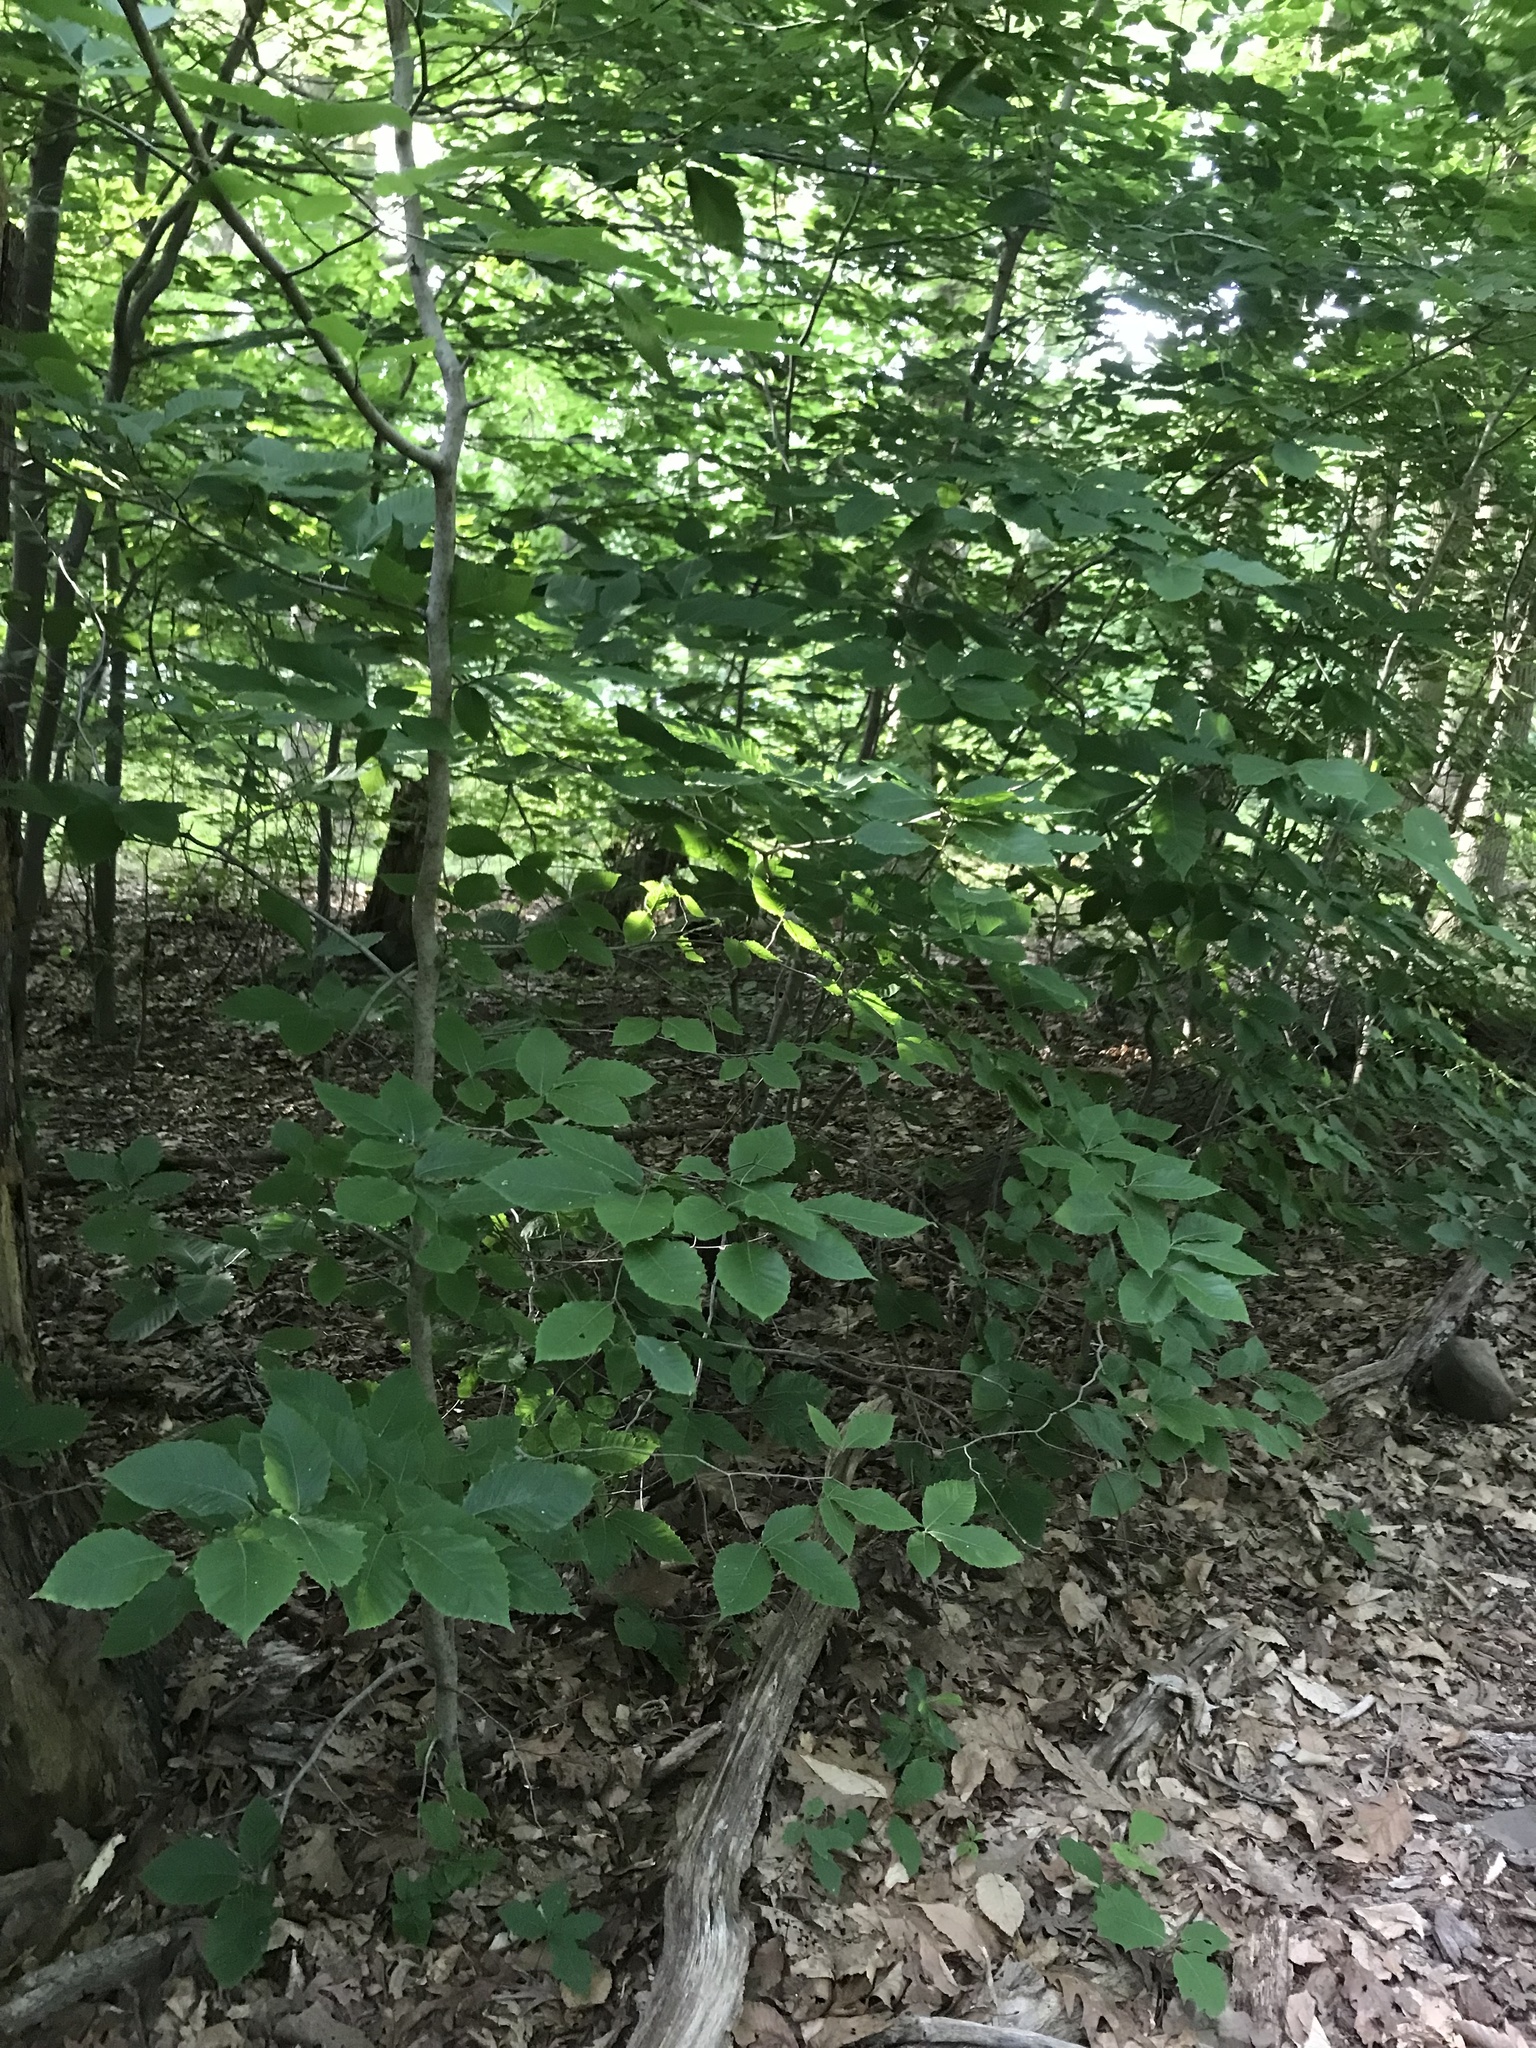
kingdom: Plantae
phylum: Tracheophyta
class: Magnoliopsida
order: Fagales
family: Fagaceae
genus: Fagus
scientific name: Fagus grandifolia
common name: American beech
